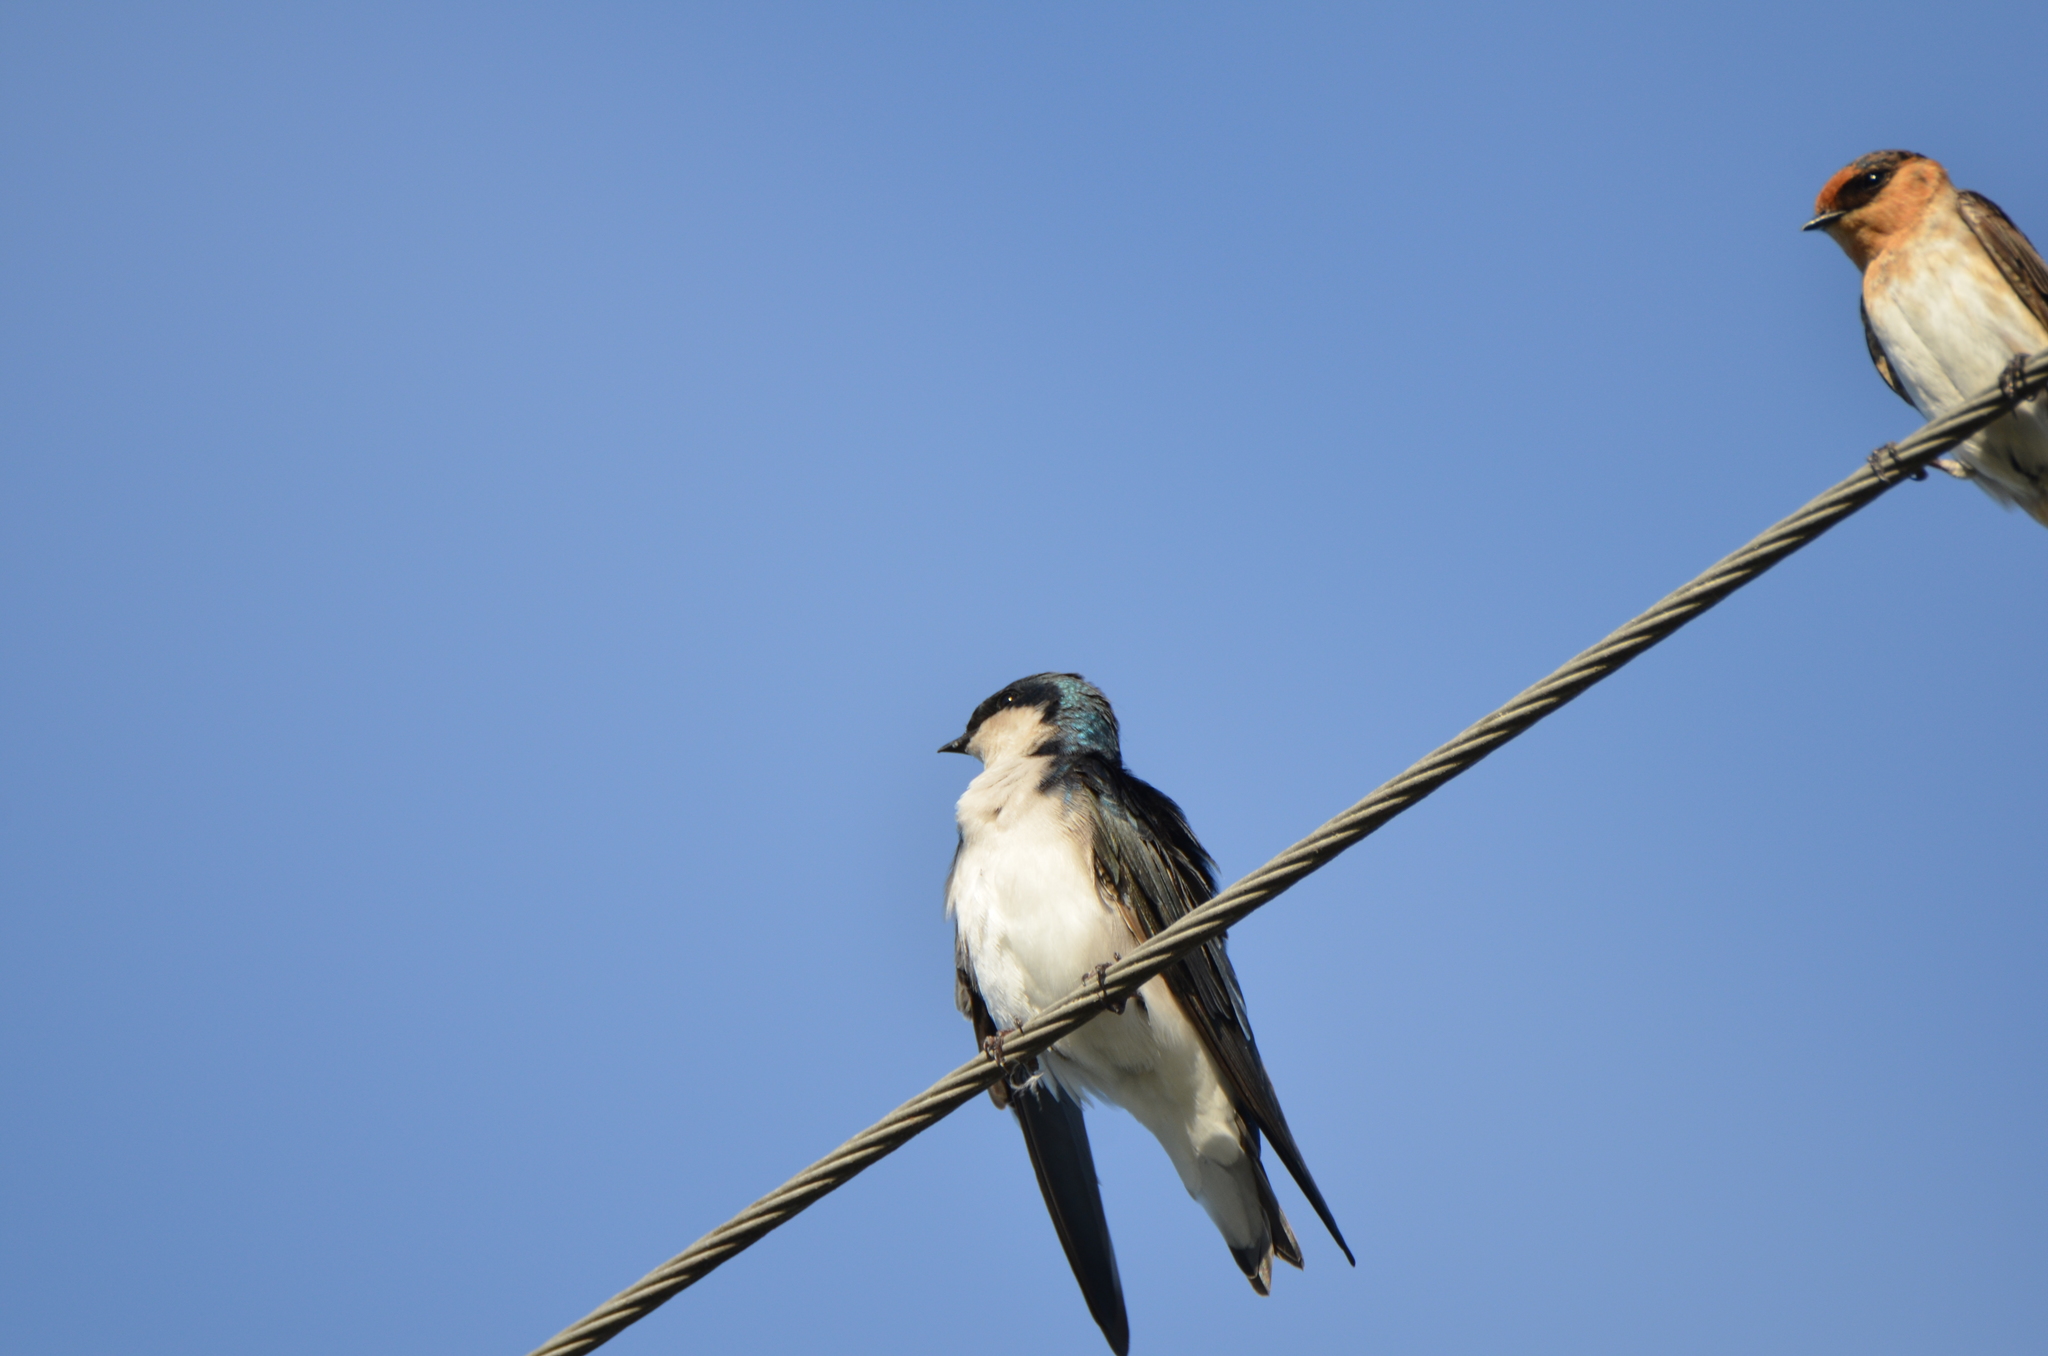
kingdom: Animalia
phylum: Chordata
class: Aves
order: Passeriformes
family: Hirundinidae
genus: Tachycineta
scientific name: Tachycineta bicolor
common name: Tree swallow
